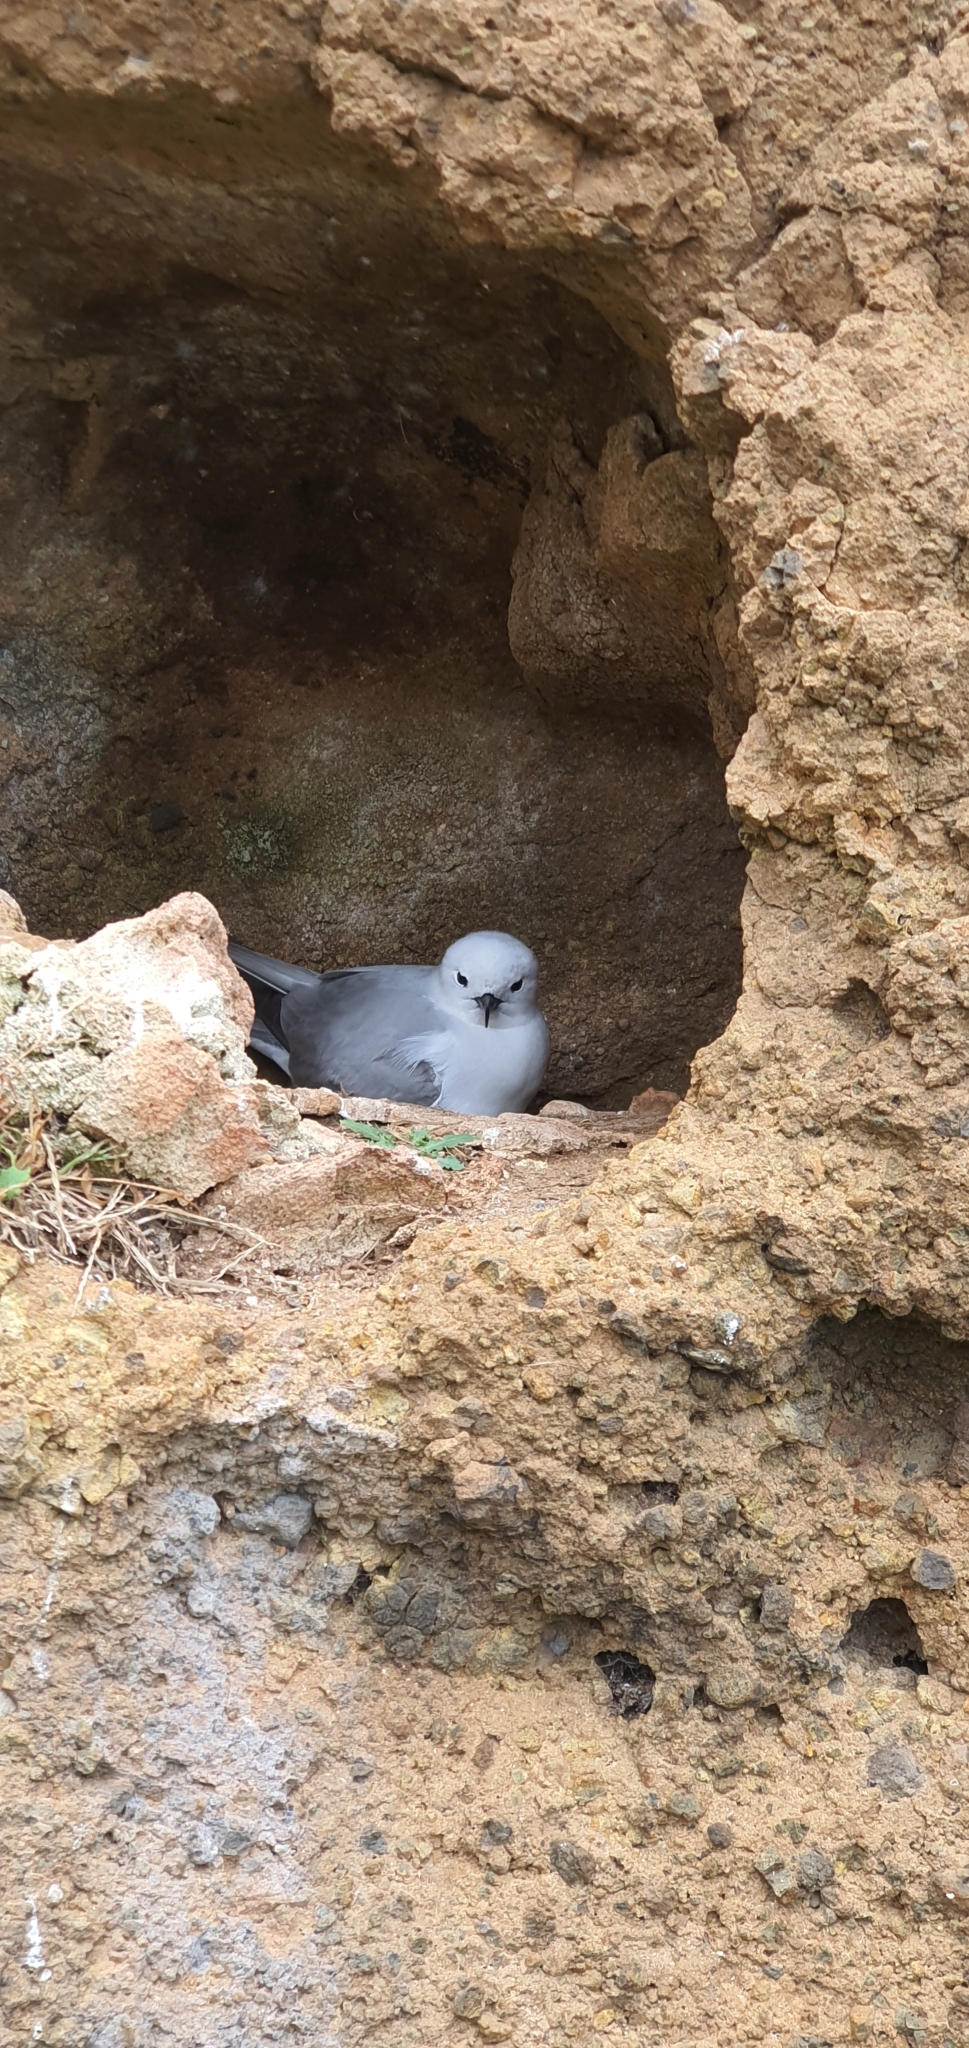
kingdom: Animalia
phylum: Chordata
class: Aves
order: Charadriiformes
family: Laridae
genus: Anous
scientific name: Anous albivitta
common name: Gray noddy
